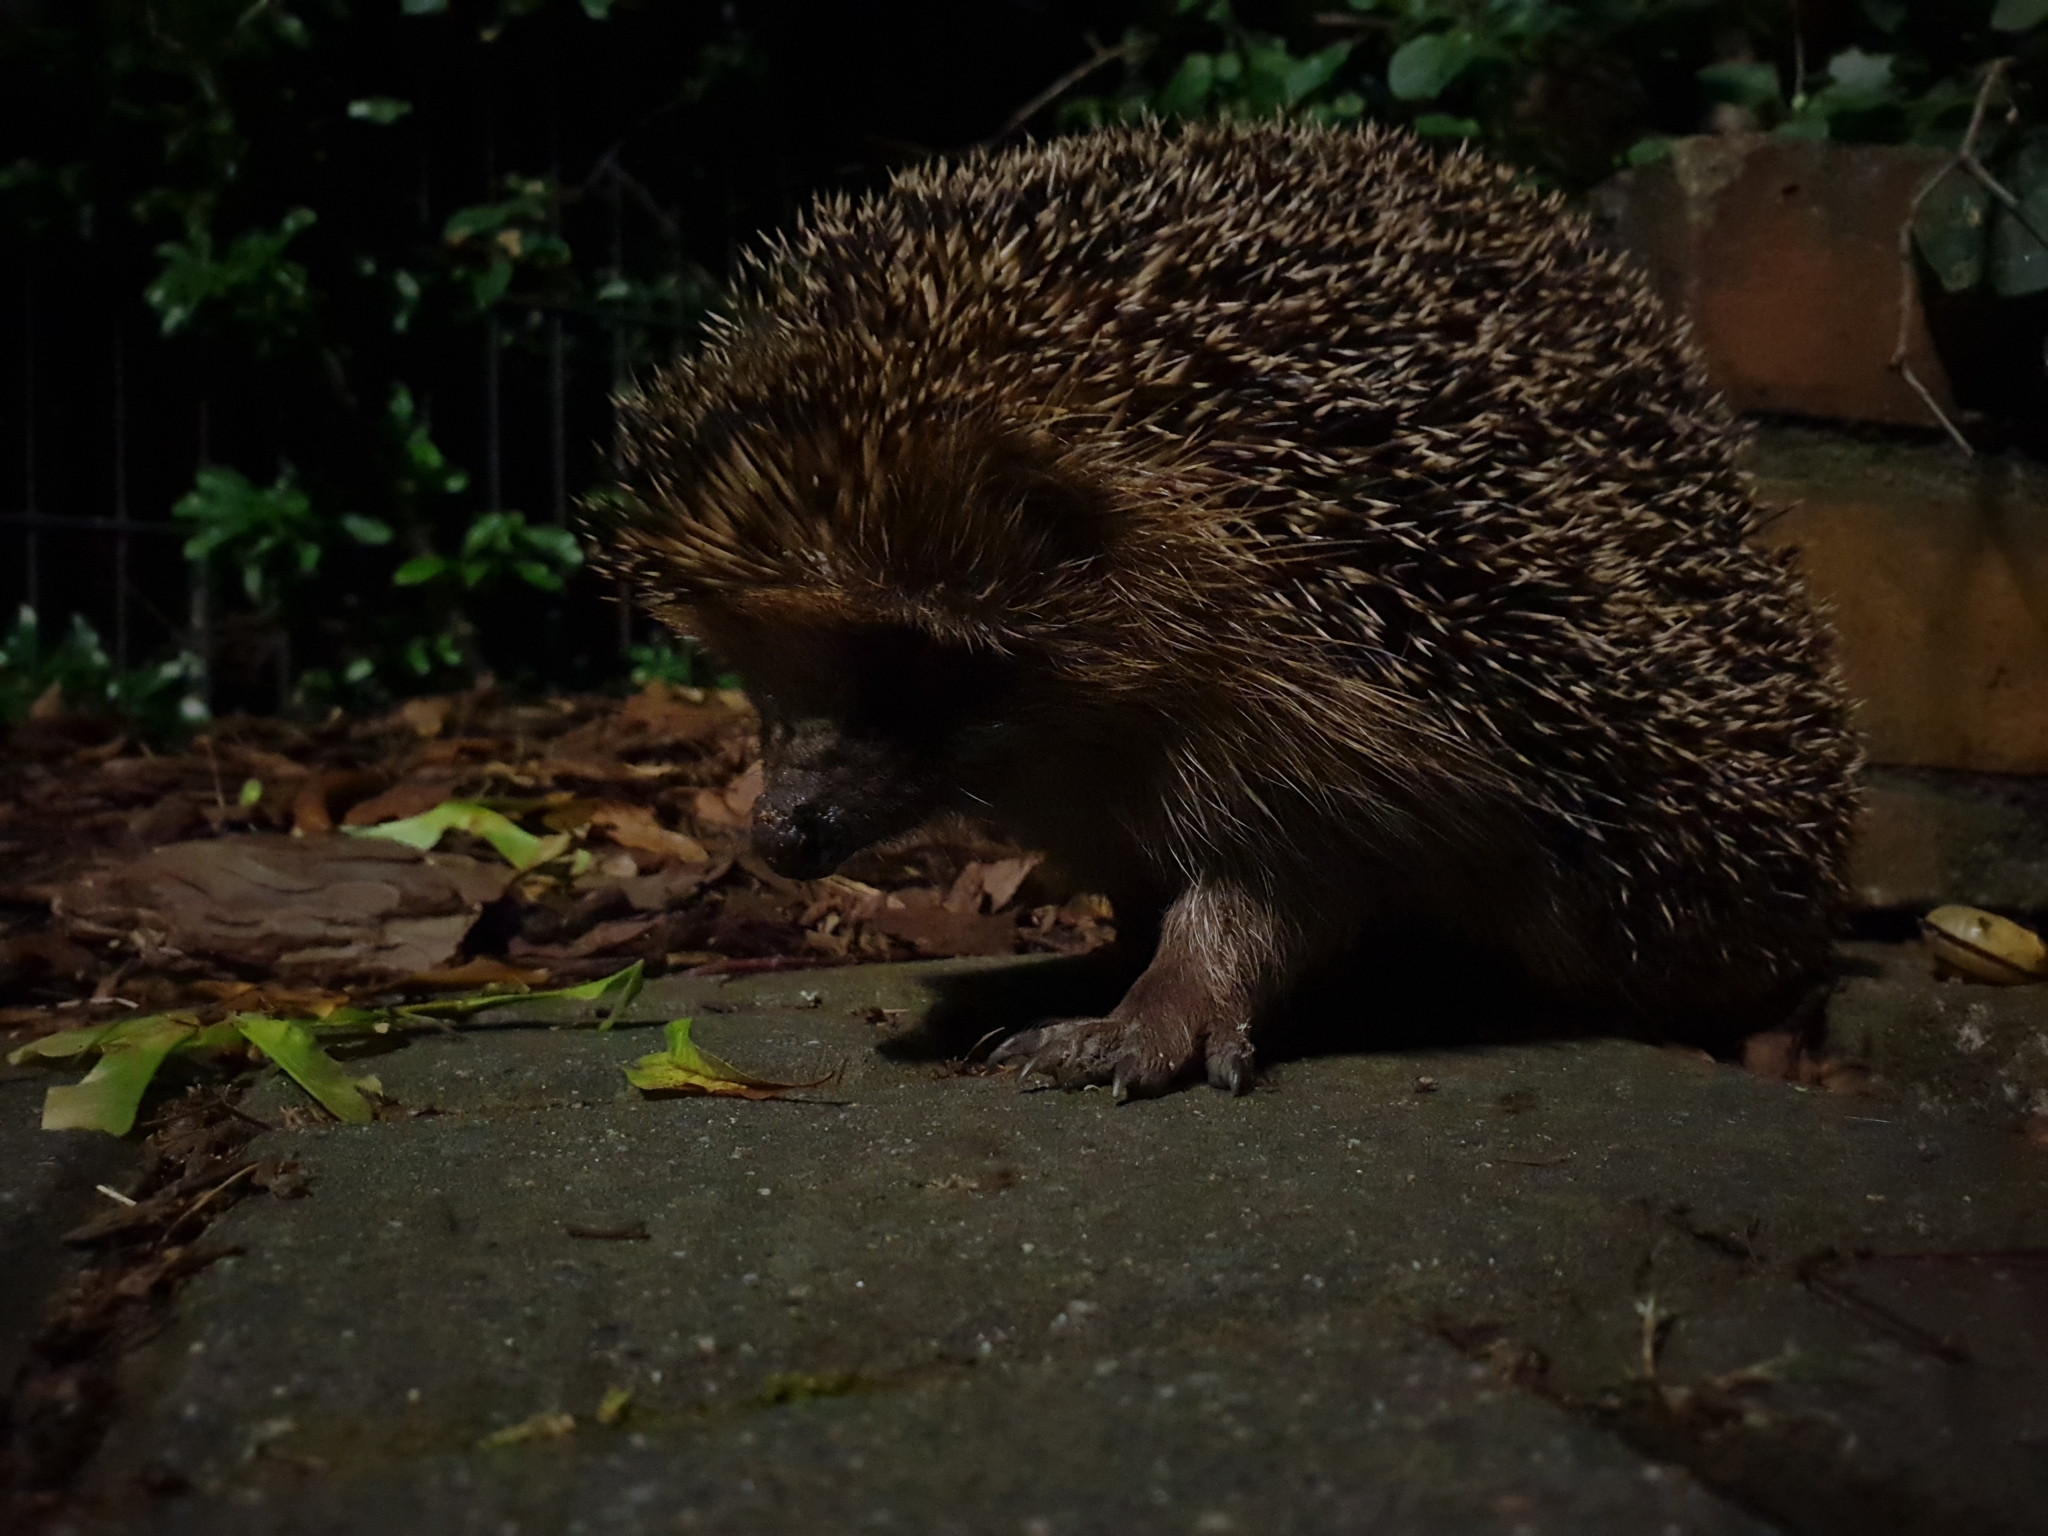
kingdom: Animalia
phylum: Chordata
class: Mammalia
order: Erinaceomorpha
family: Erinaceidae
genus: Erinaceus
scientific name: Erinaceus europaeus
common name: West european hedgehog
